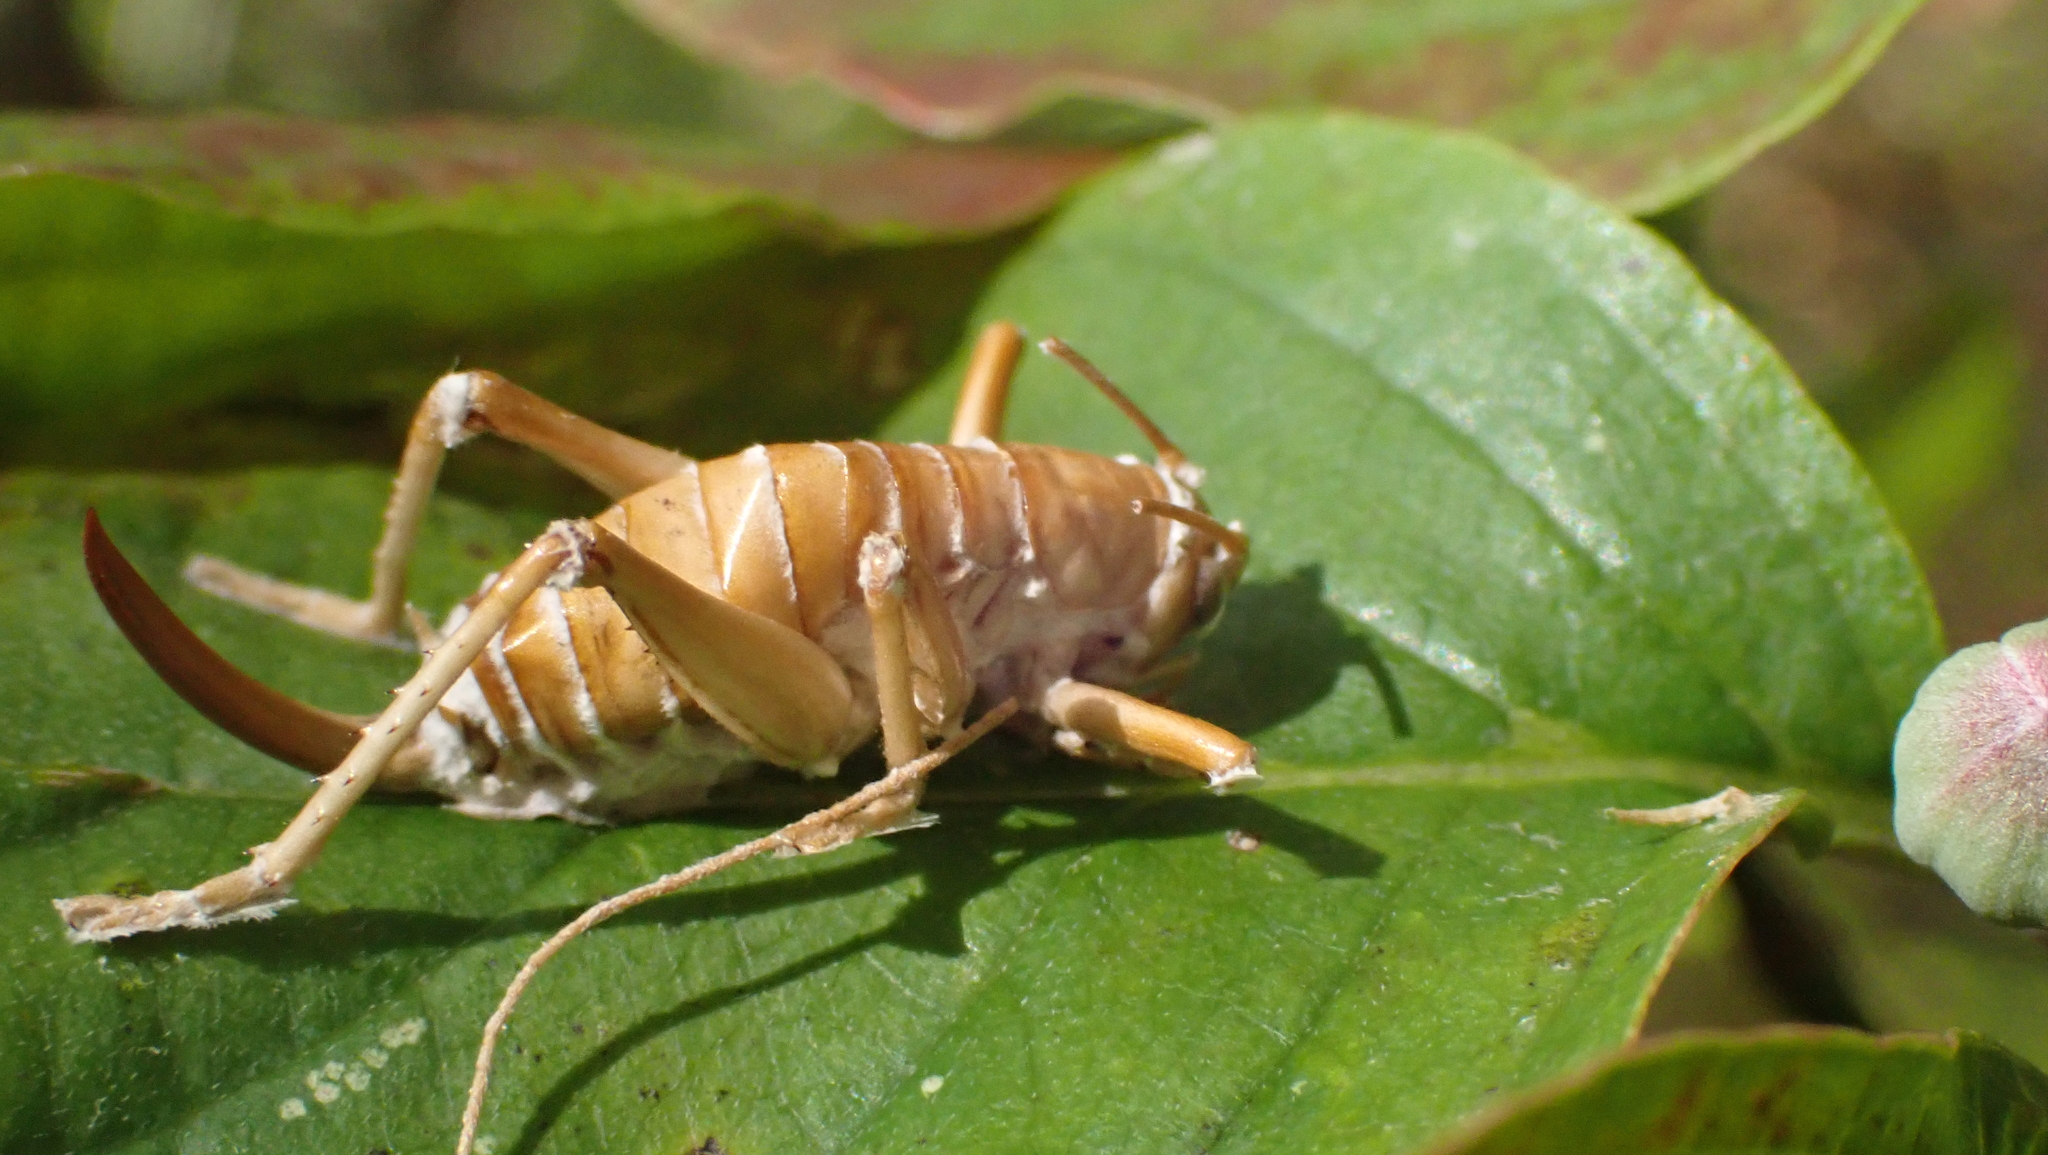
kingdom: Animalia
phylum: Arthropoda
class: Insecta
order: Orthoptera
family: Gryllacrididae
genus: Camptonotus
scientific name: Camptonotus carolinensis
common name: Carolina leaf-roller
